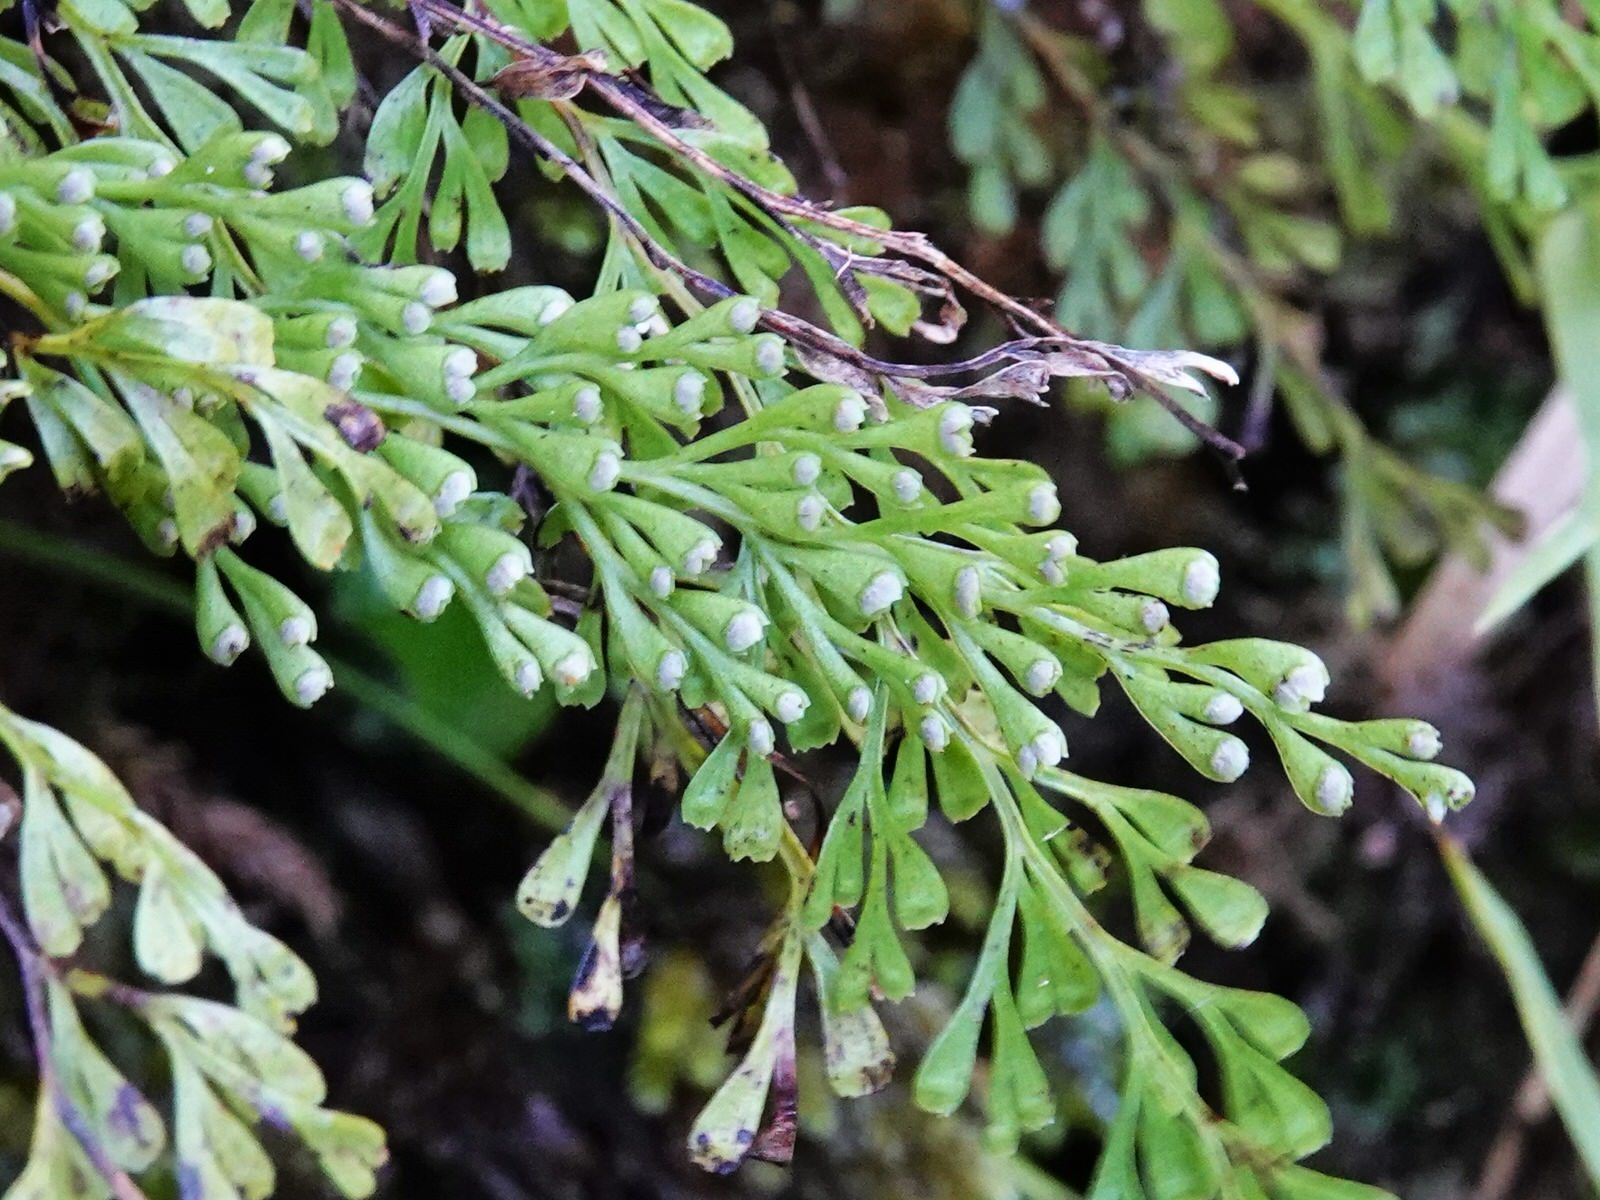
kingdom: Plantae
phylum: Tracheophyta
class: Polypodiopsida
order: Polypodiales
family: Lindsaeaceae
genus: Odontosoria
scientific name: Odontosoria viridis
